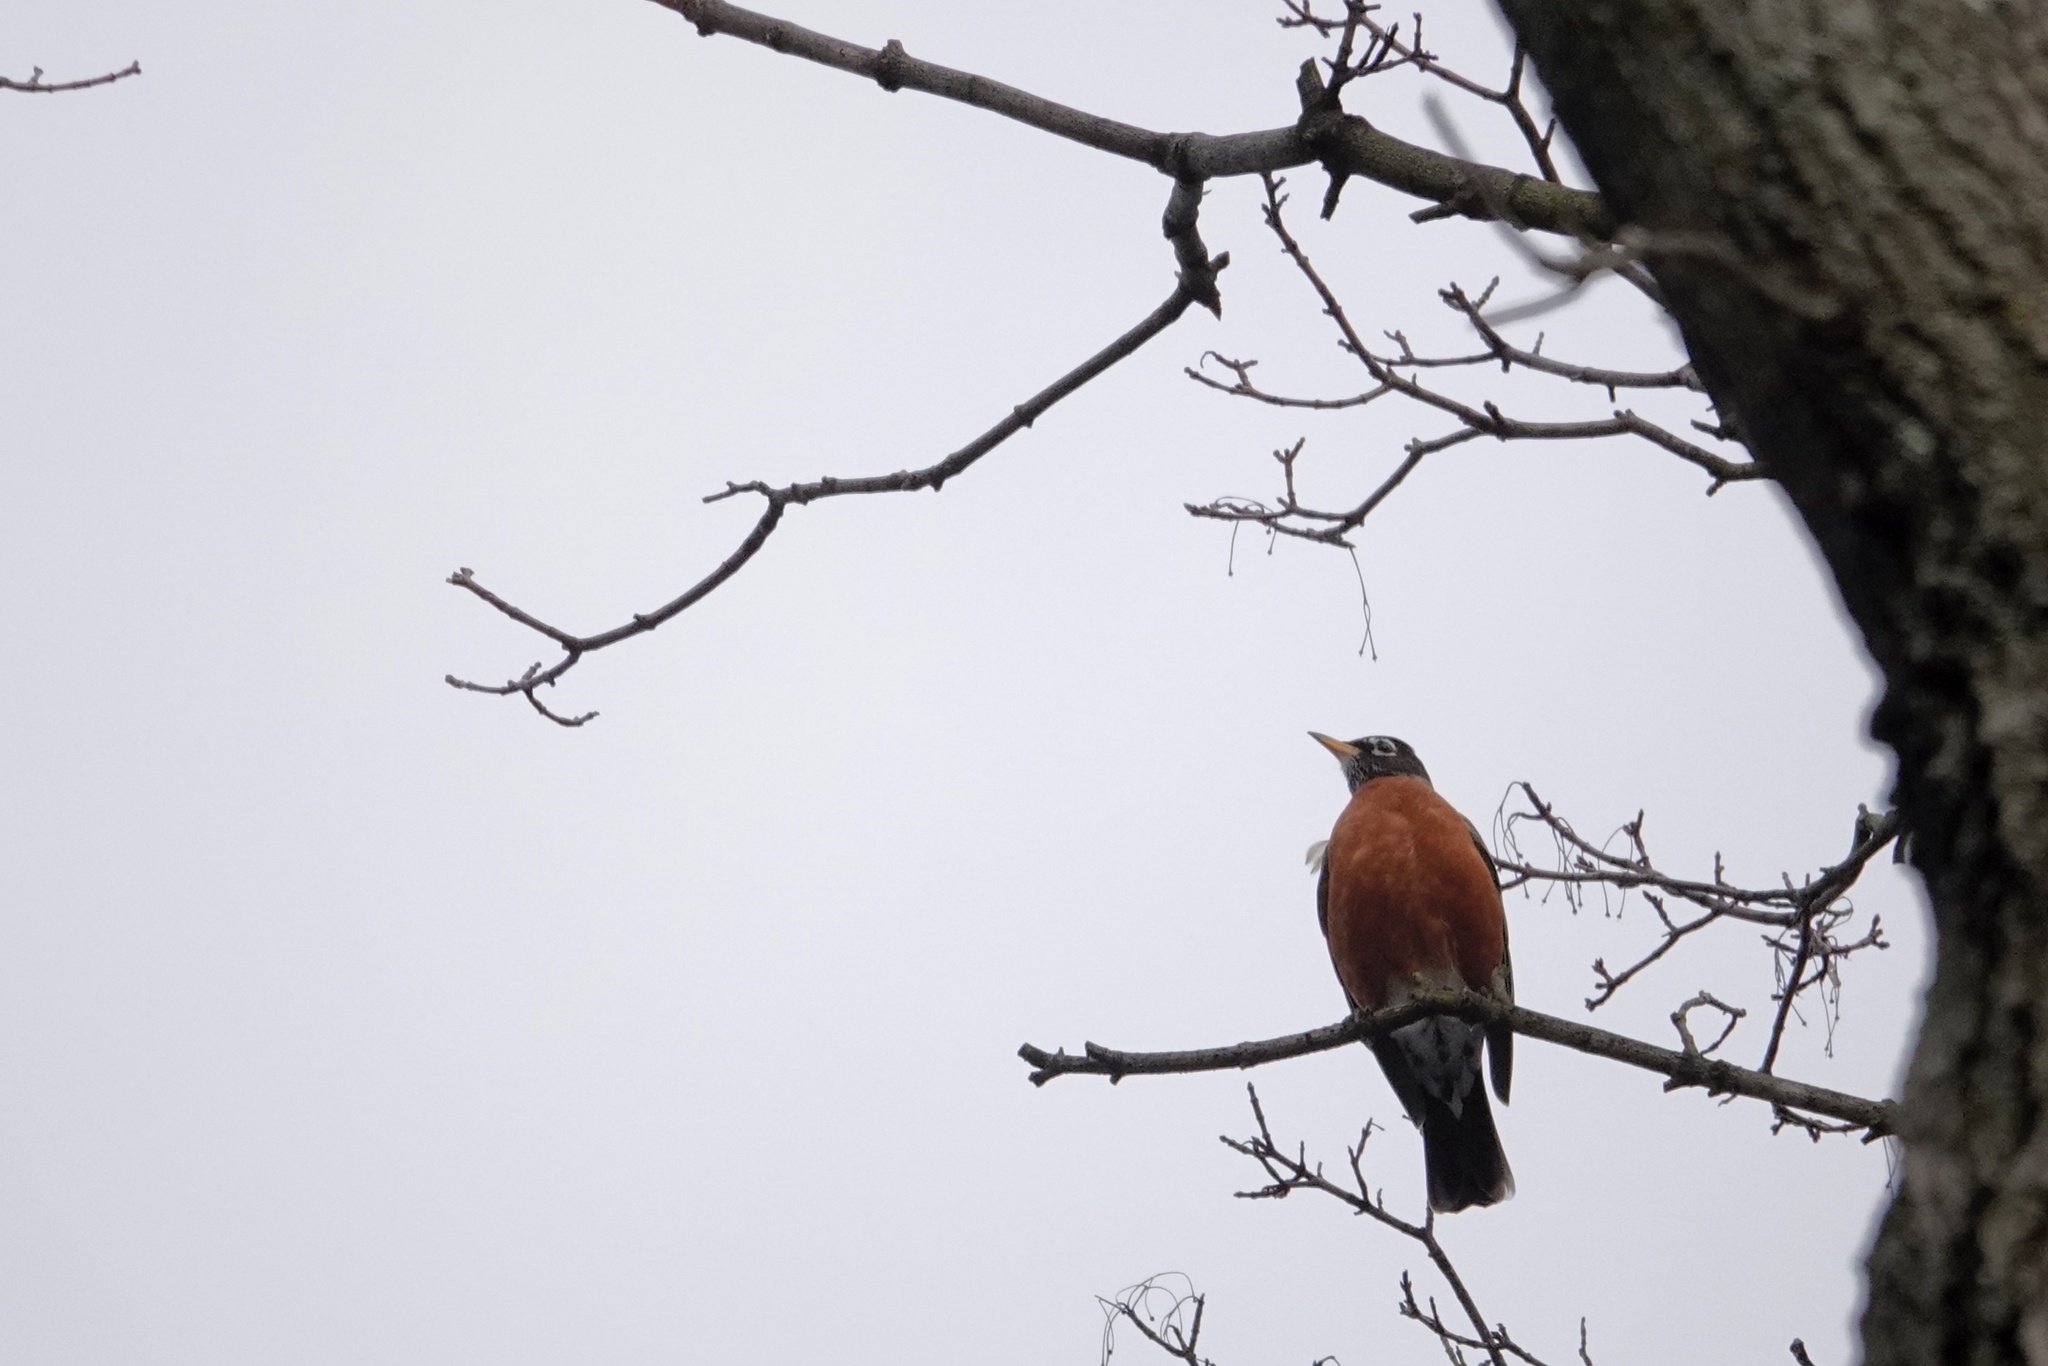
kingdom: Animalia
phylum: Chordata
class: Aves
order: Passeriformes
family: Turdidae
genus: Turdus
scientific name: Turdus migratorius
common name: American robin
